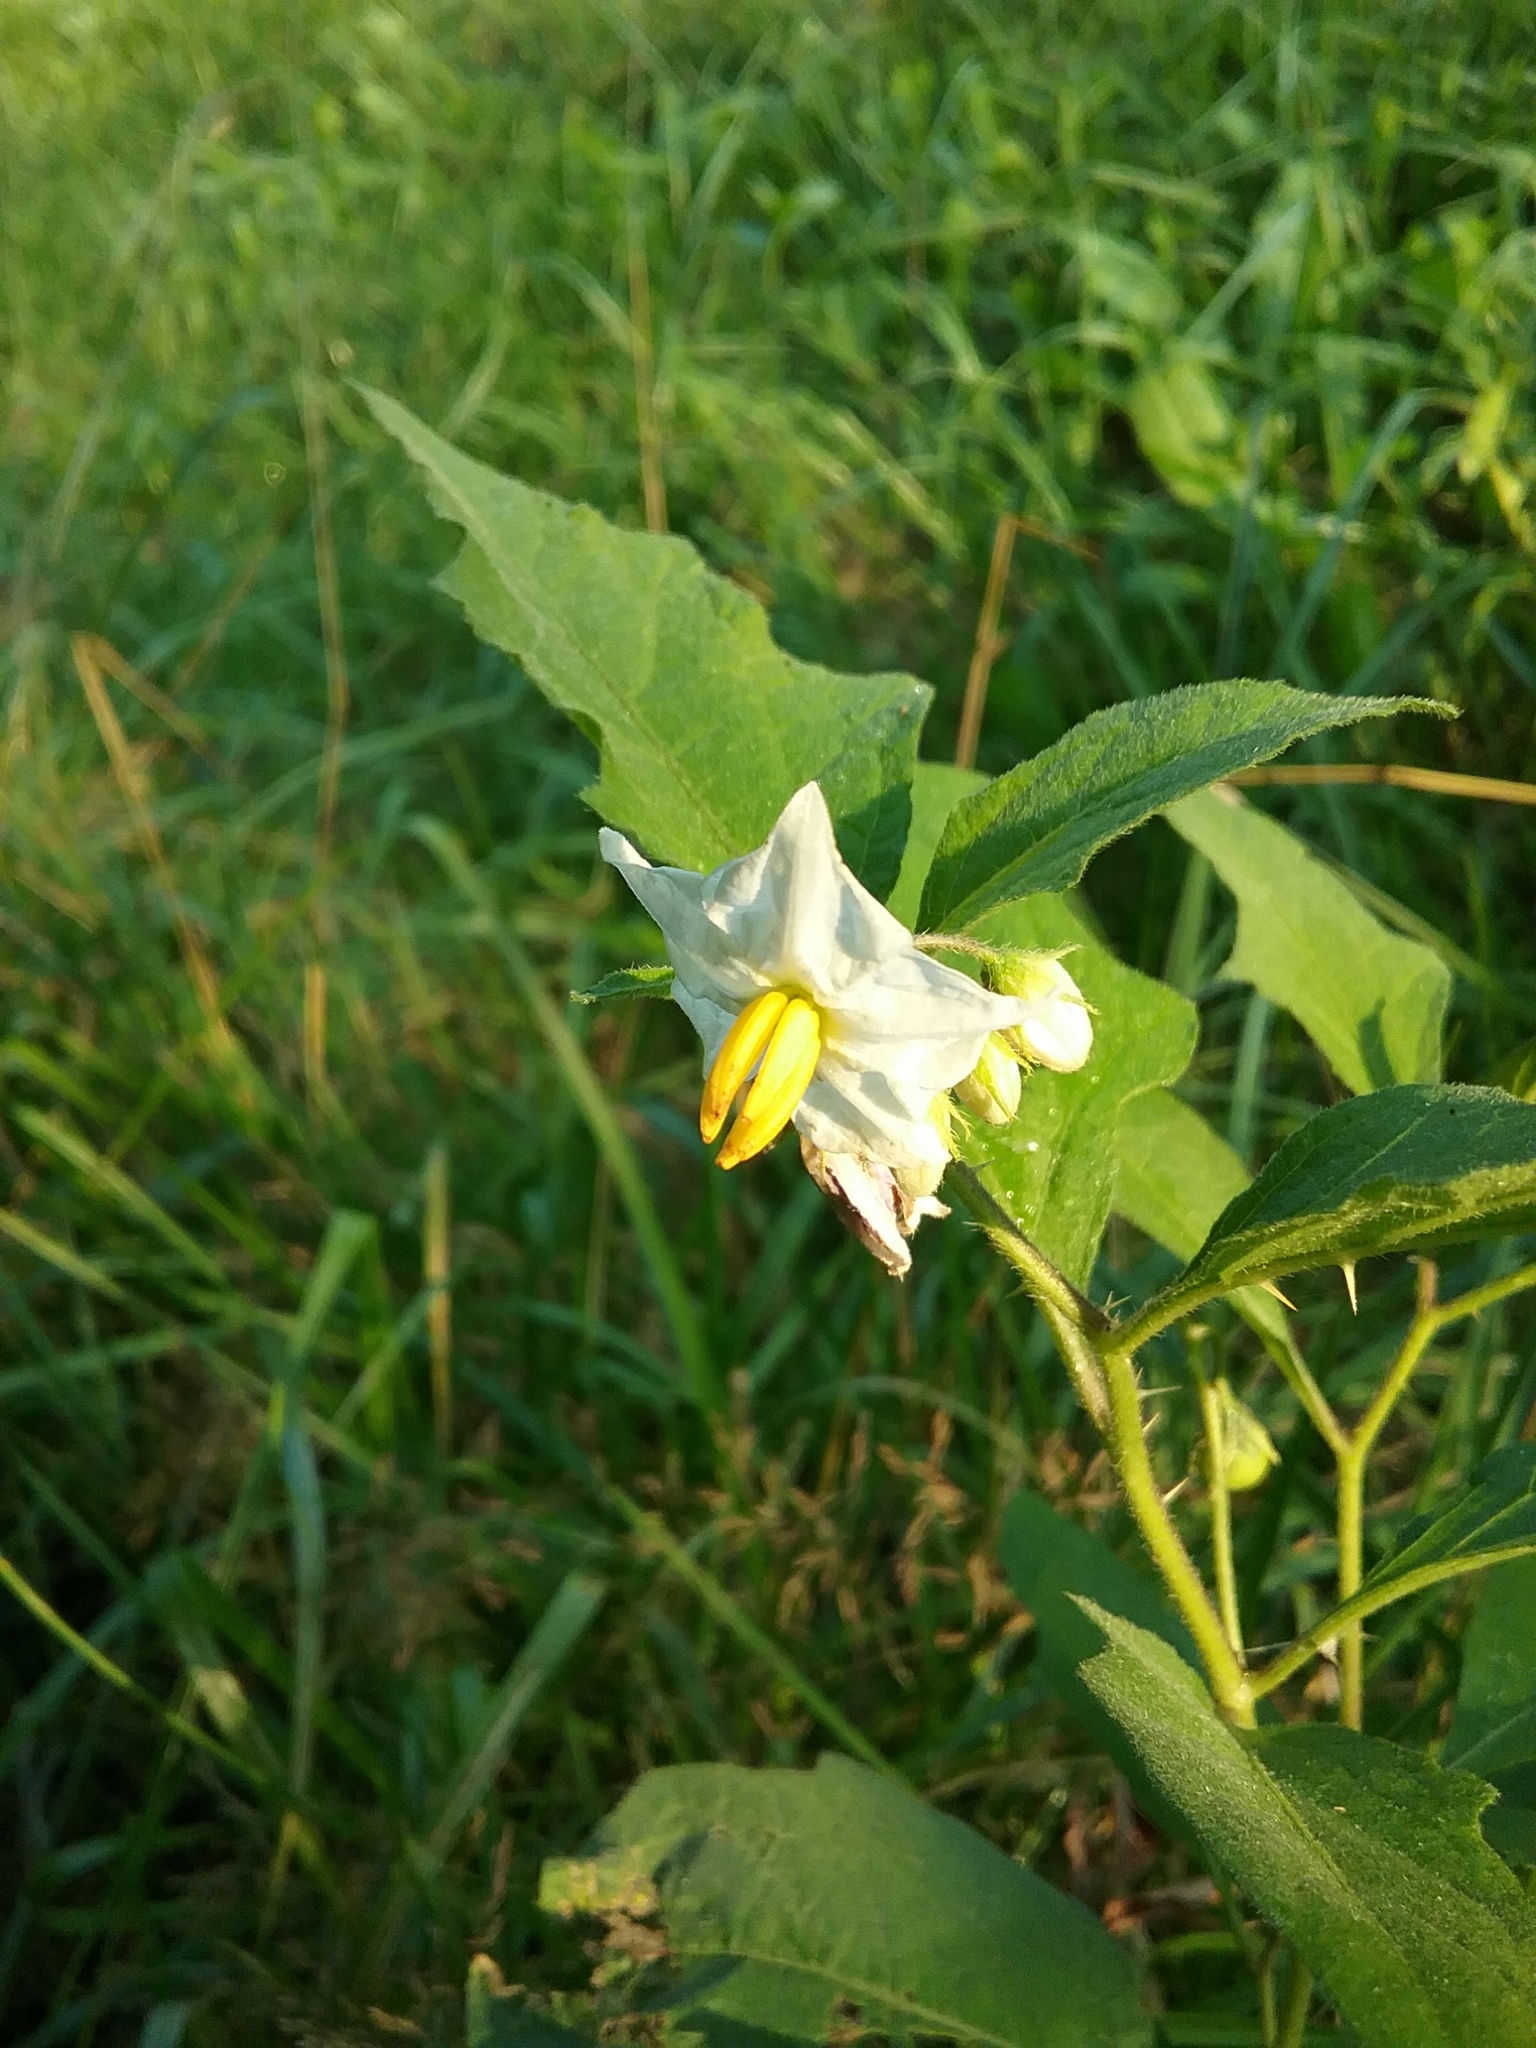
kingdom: Plantae
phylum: Tracheophyta
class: Magnoliopsida
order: Solanales
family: Solanaceae
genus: Solanum
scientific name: Solanum carolinense
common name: Horse-nettle
